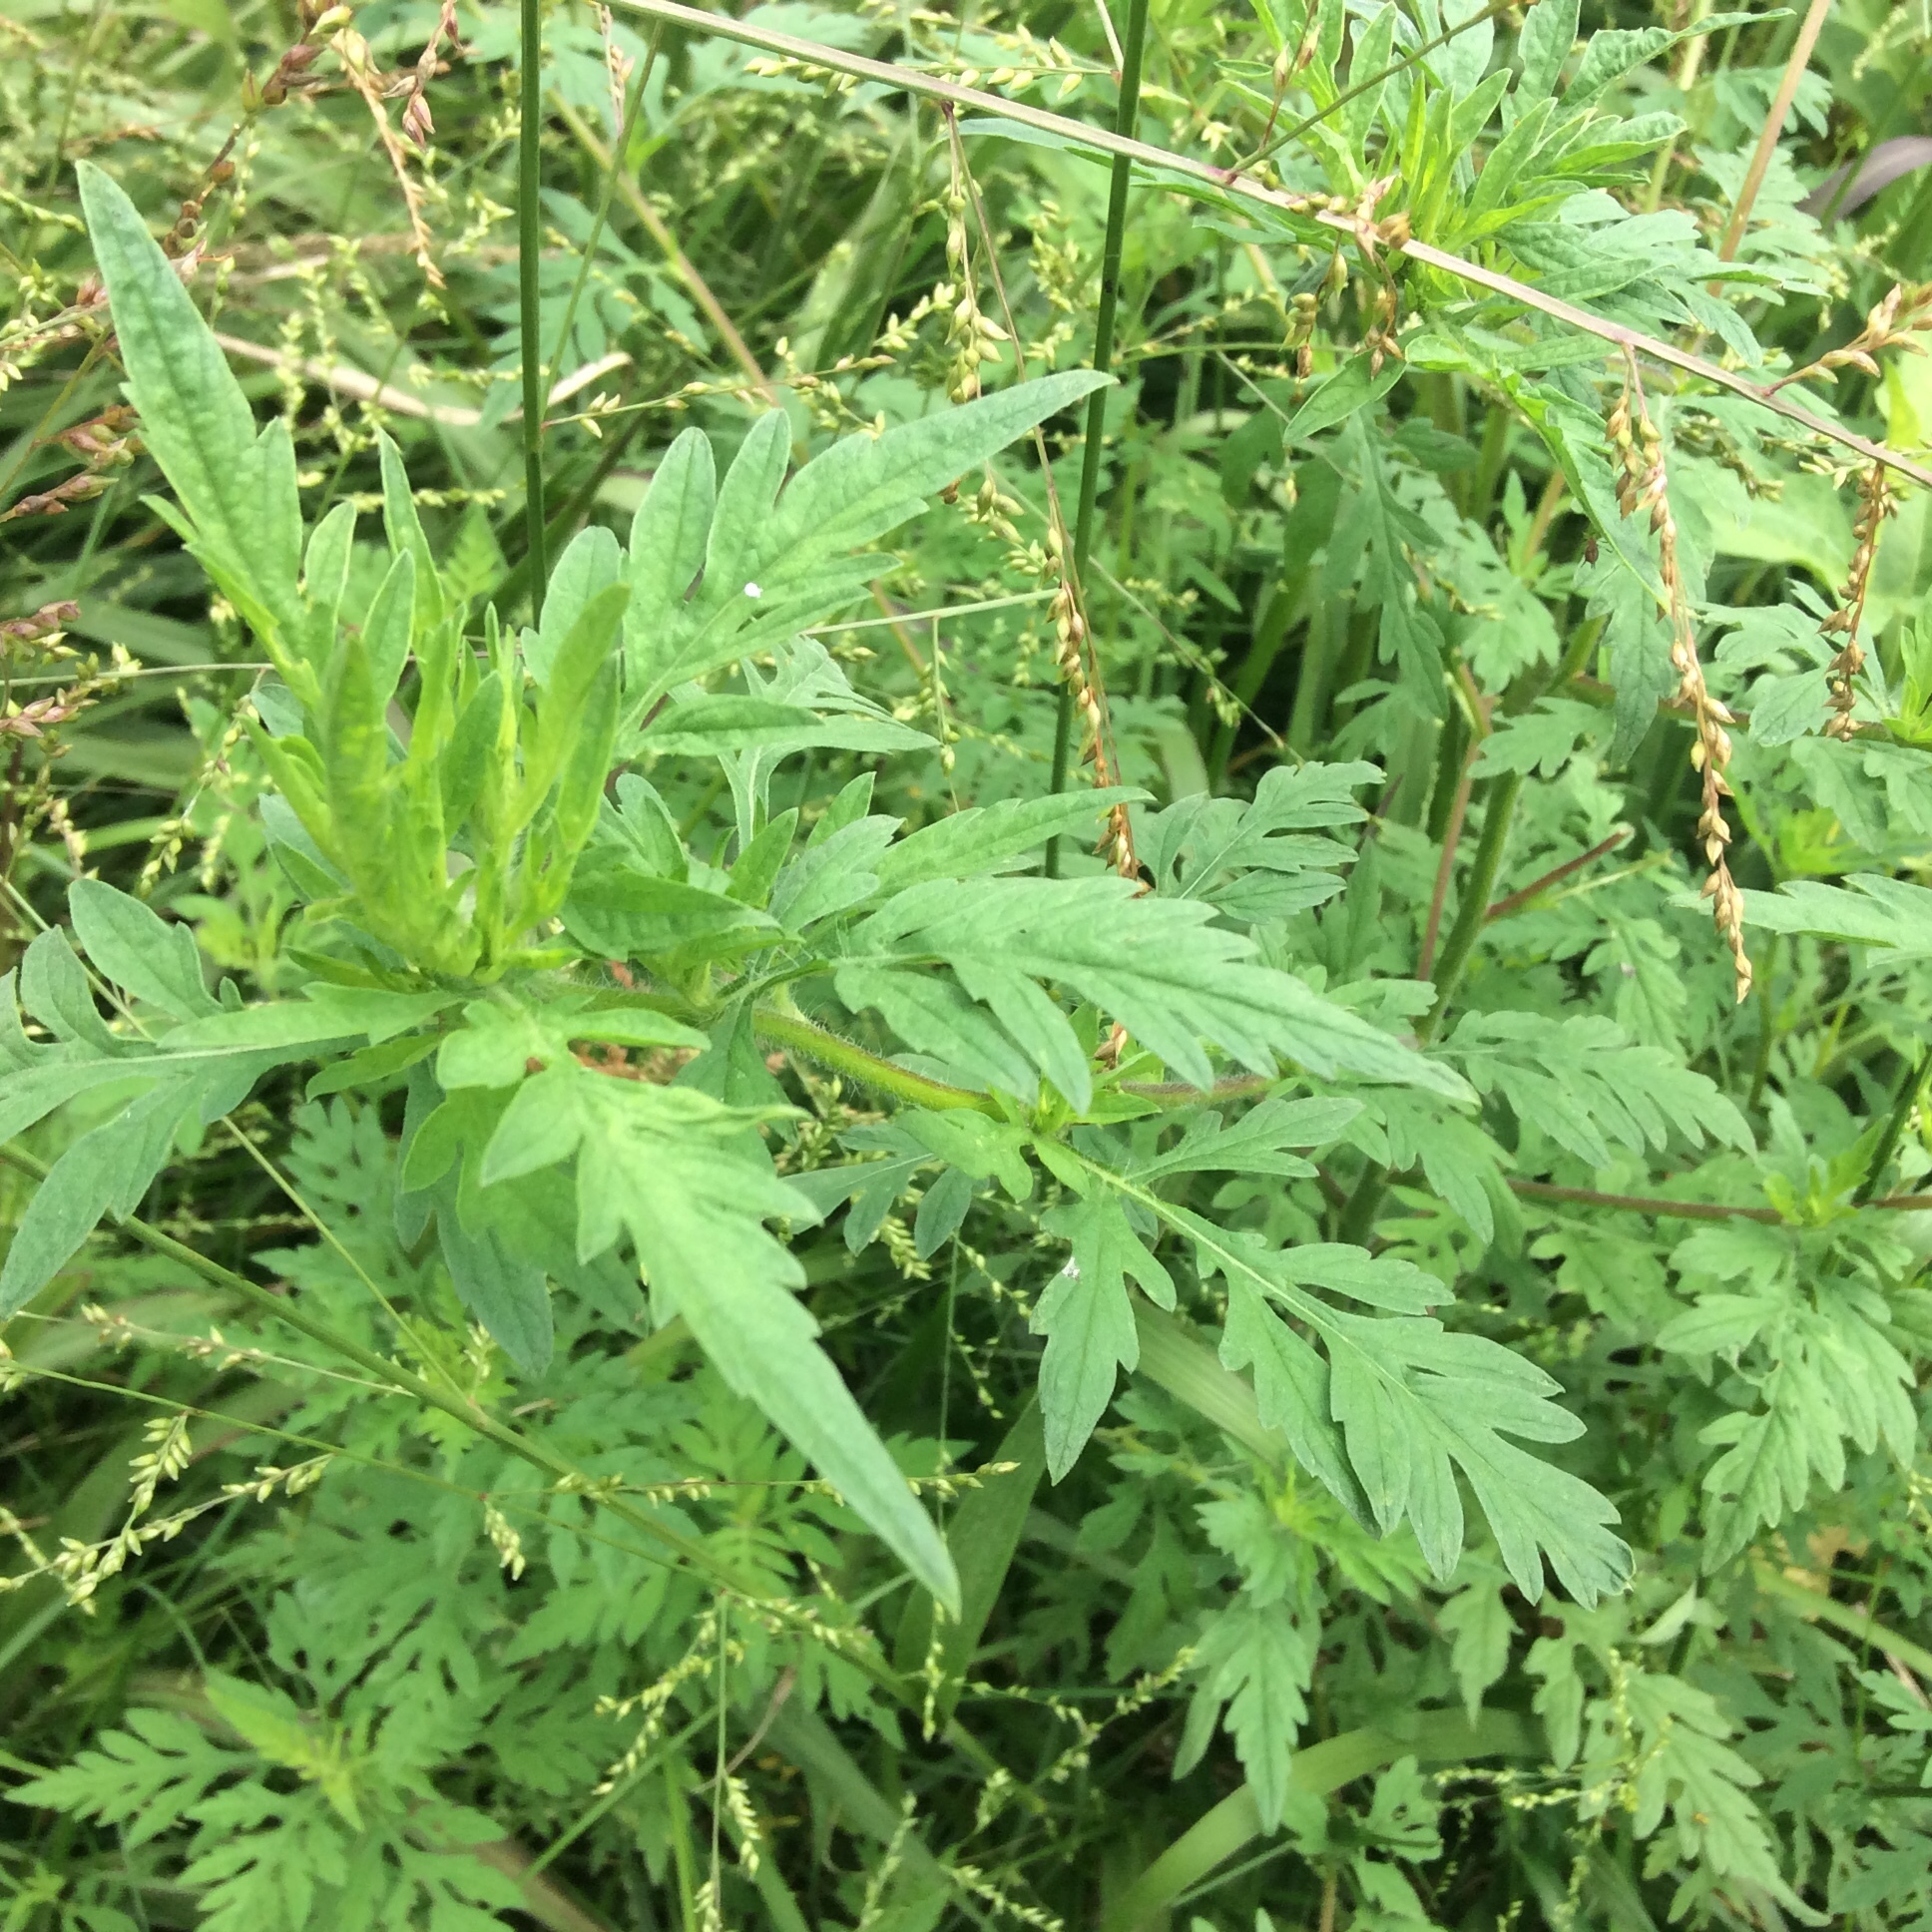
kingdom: Plantae
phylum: Tracheophyta
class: Magnoliopsida
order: Asterales
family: Asteraceae
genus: Ambrosia
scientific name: Ambrosia artemisiifolia
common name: Annual ragweed
